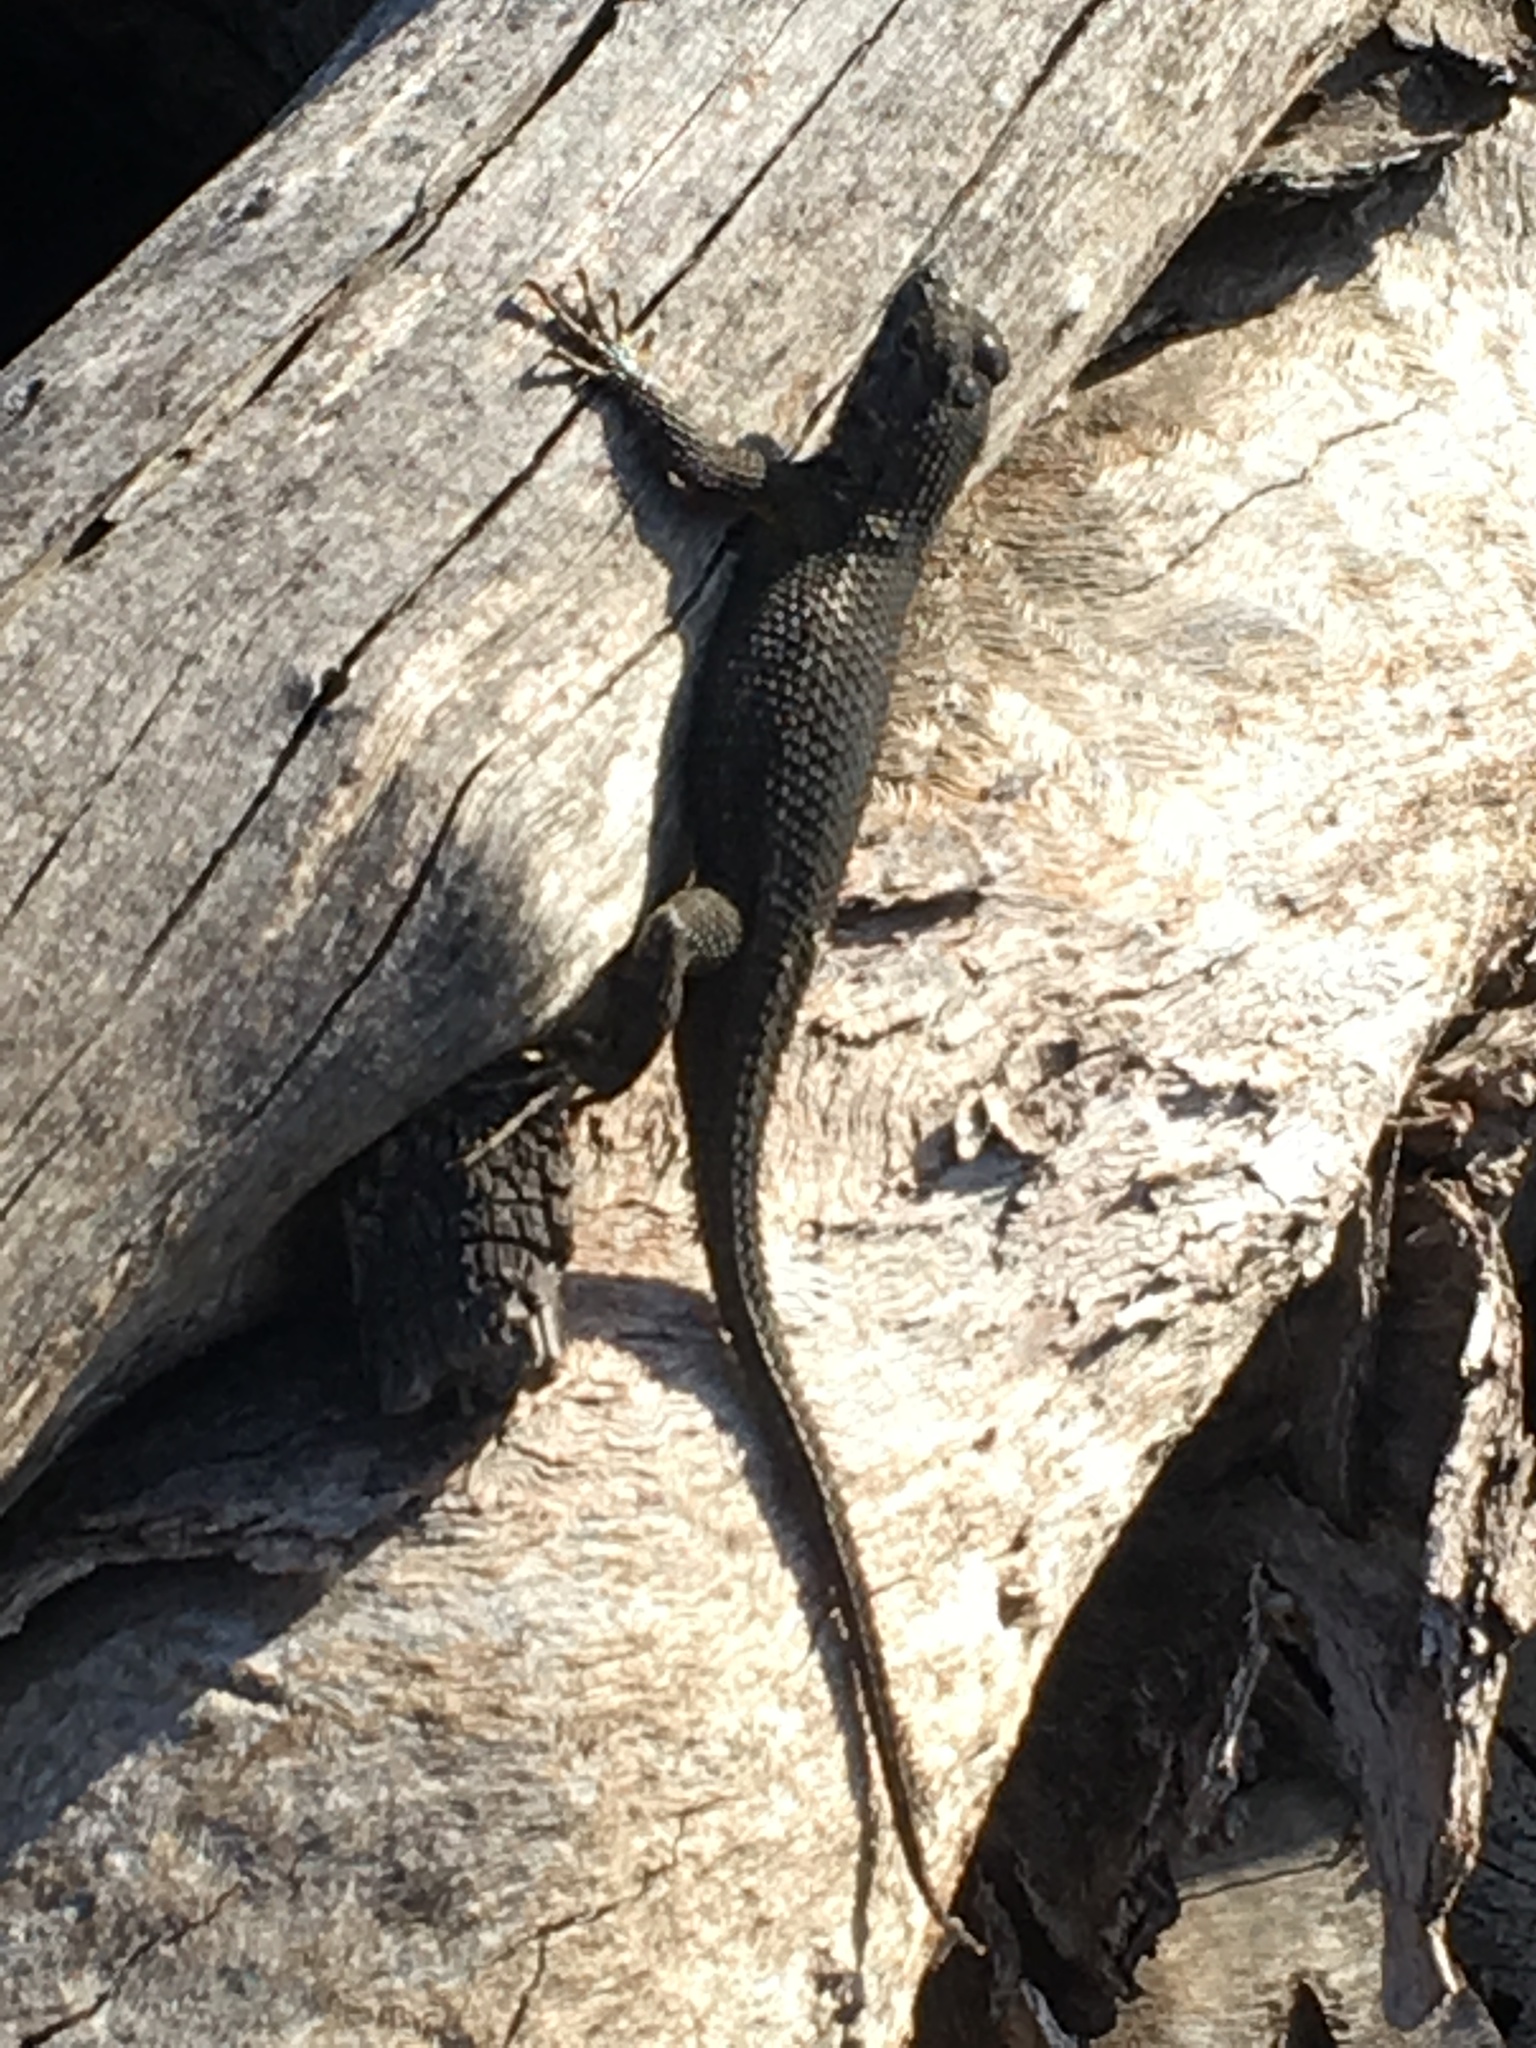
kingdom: Animalia
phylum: Chordata
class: Squamata
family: Phrynosomatidae
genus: Sceloporus
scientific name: Sceloporus occidentalis
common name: Western fence lizard
